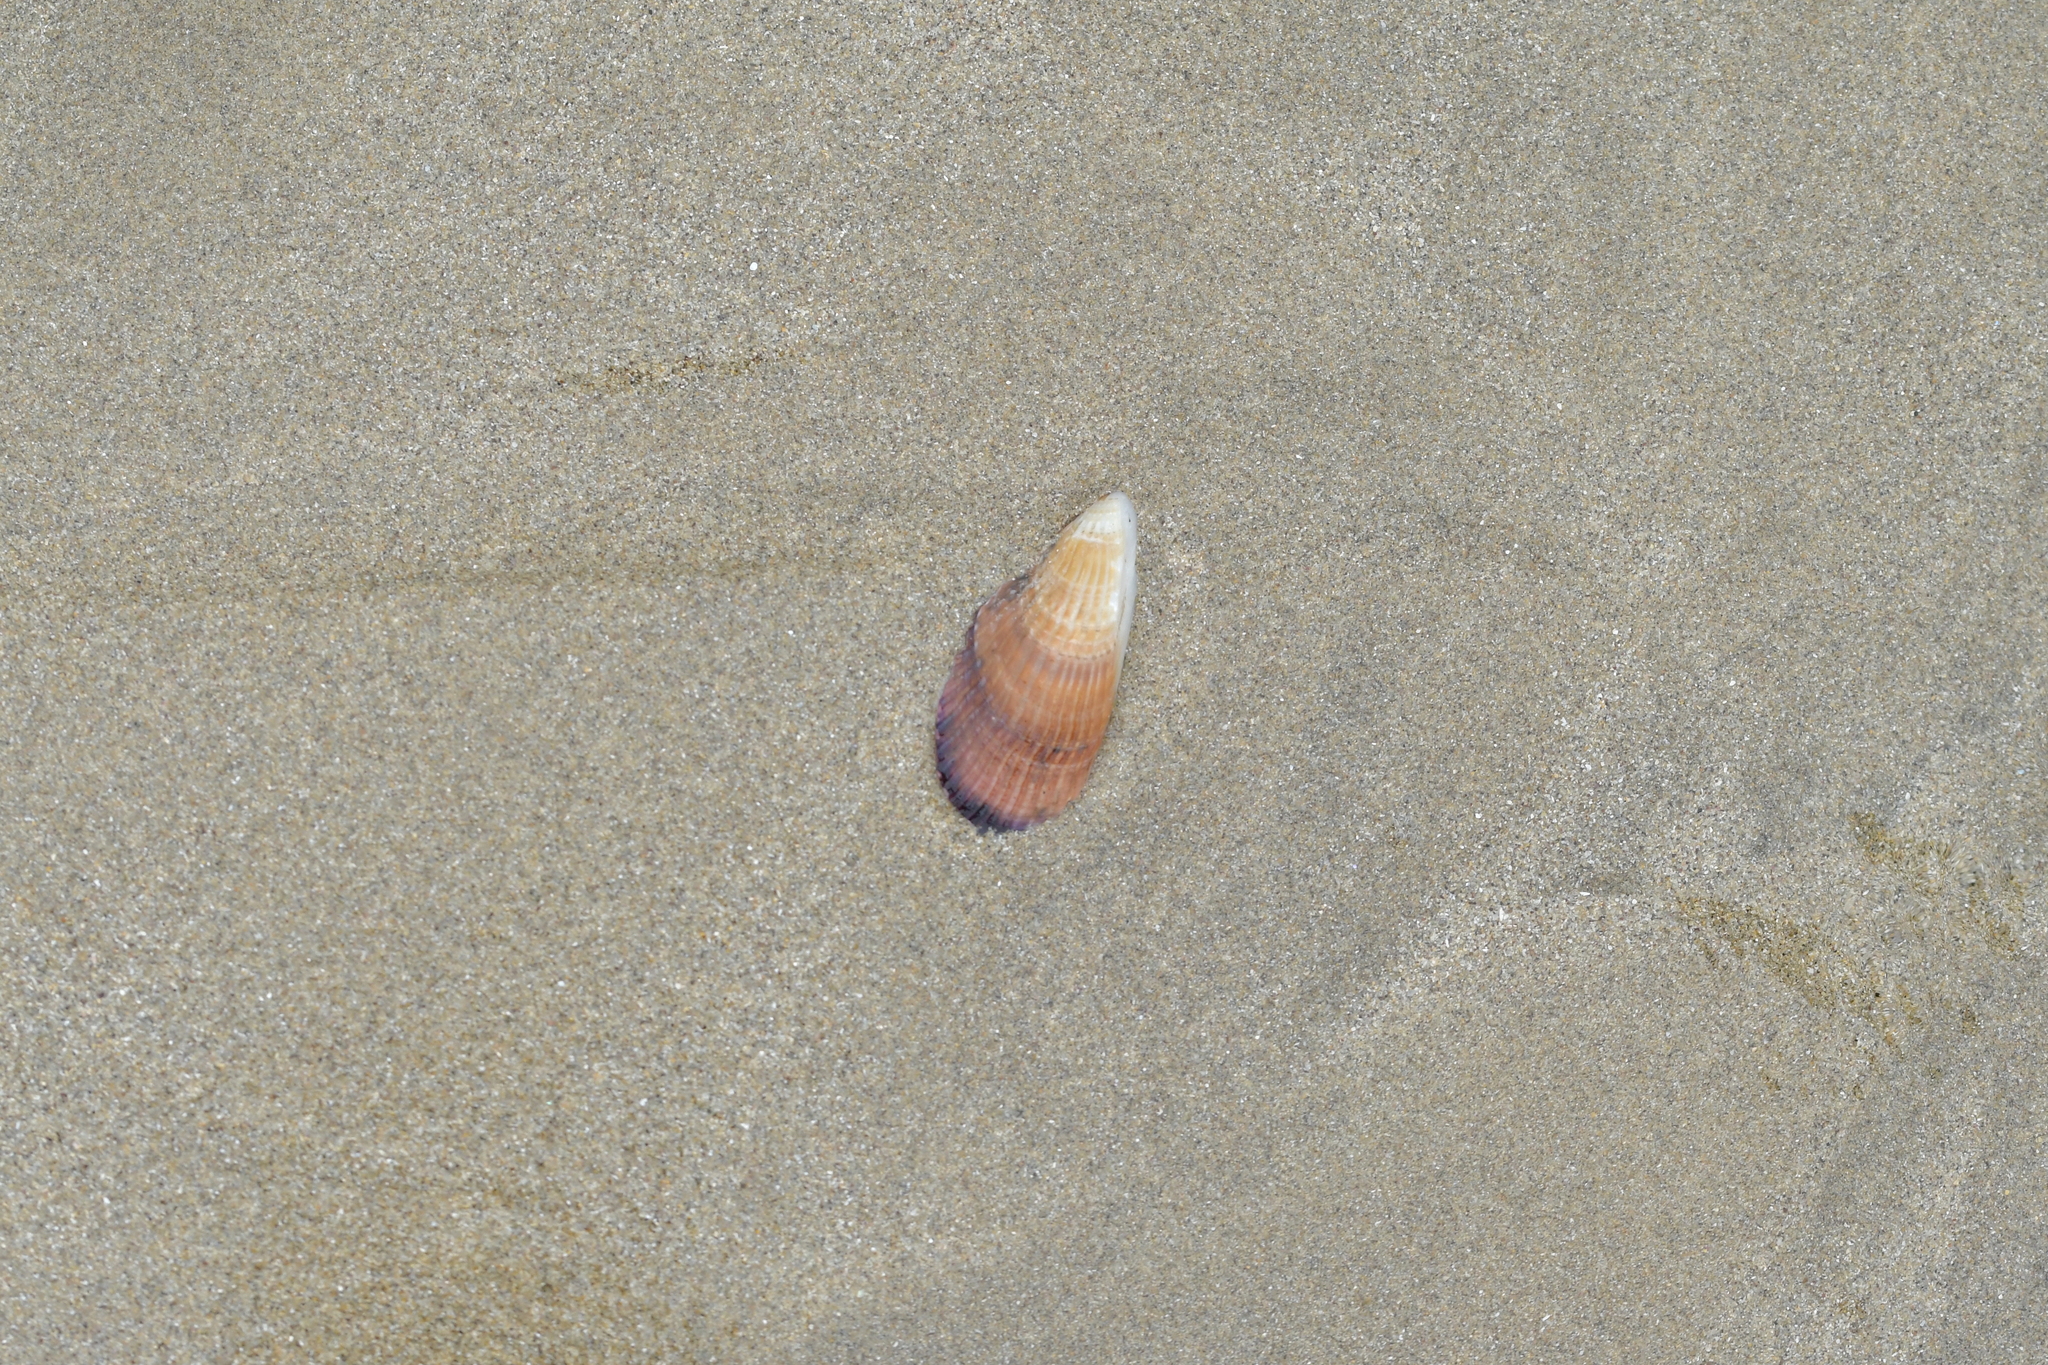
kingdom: Animalia
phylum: Mollusca
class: Bivalvia
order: Mytilida
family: Mytilidae
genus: Aulacomya
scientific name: Aulacomya maoriana
